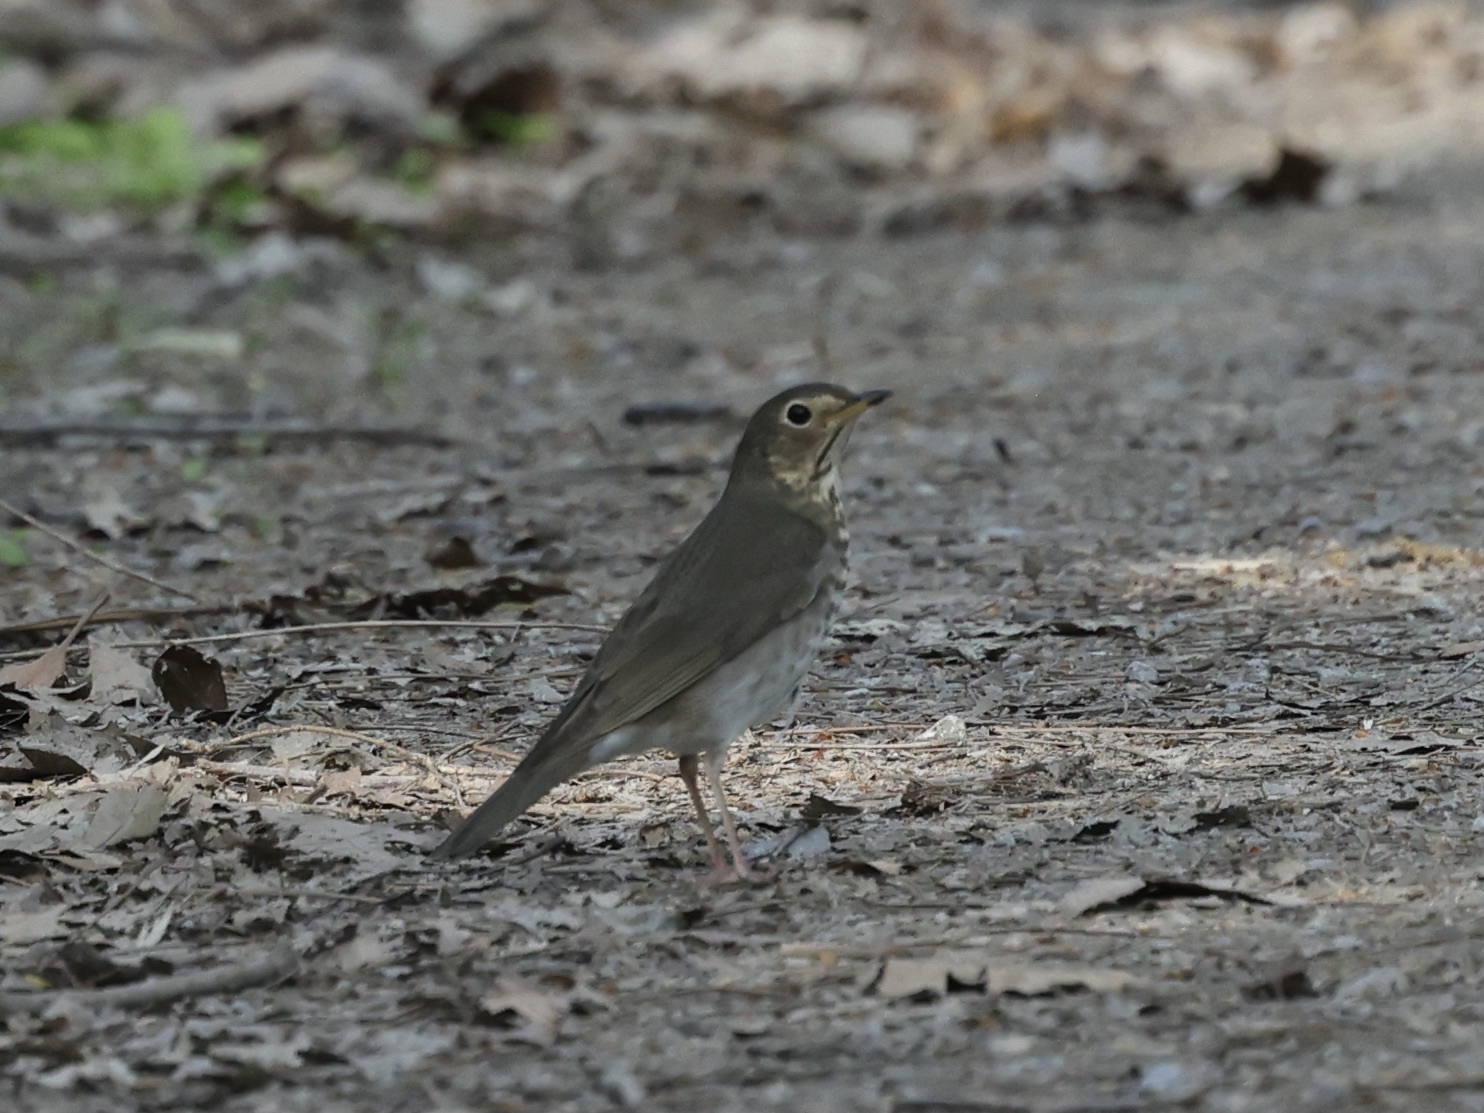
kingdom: Animalia
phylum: Chordata
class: Aves
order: Passeriformes
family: Turdidae
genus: Catharus
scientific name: Catharus ustulatus
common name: Swainson's thrush
